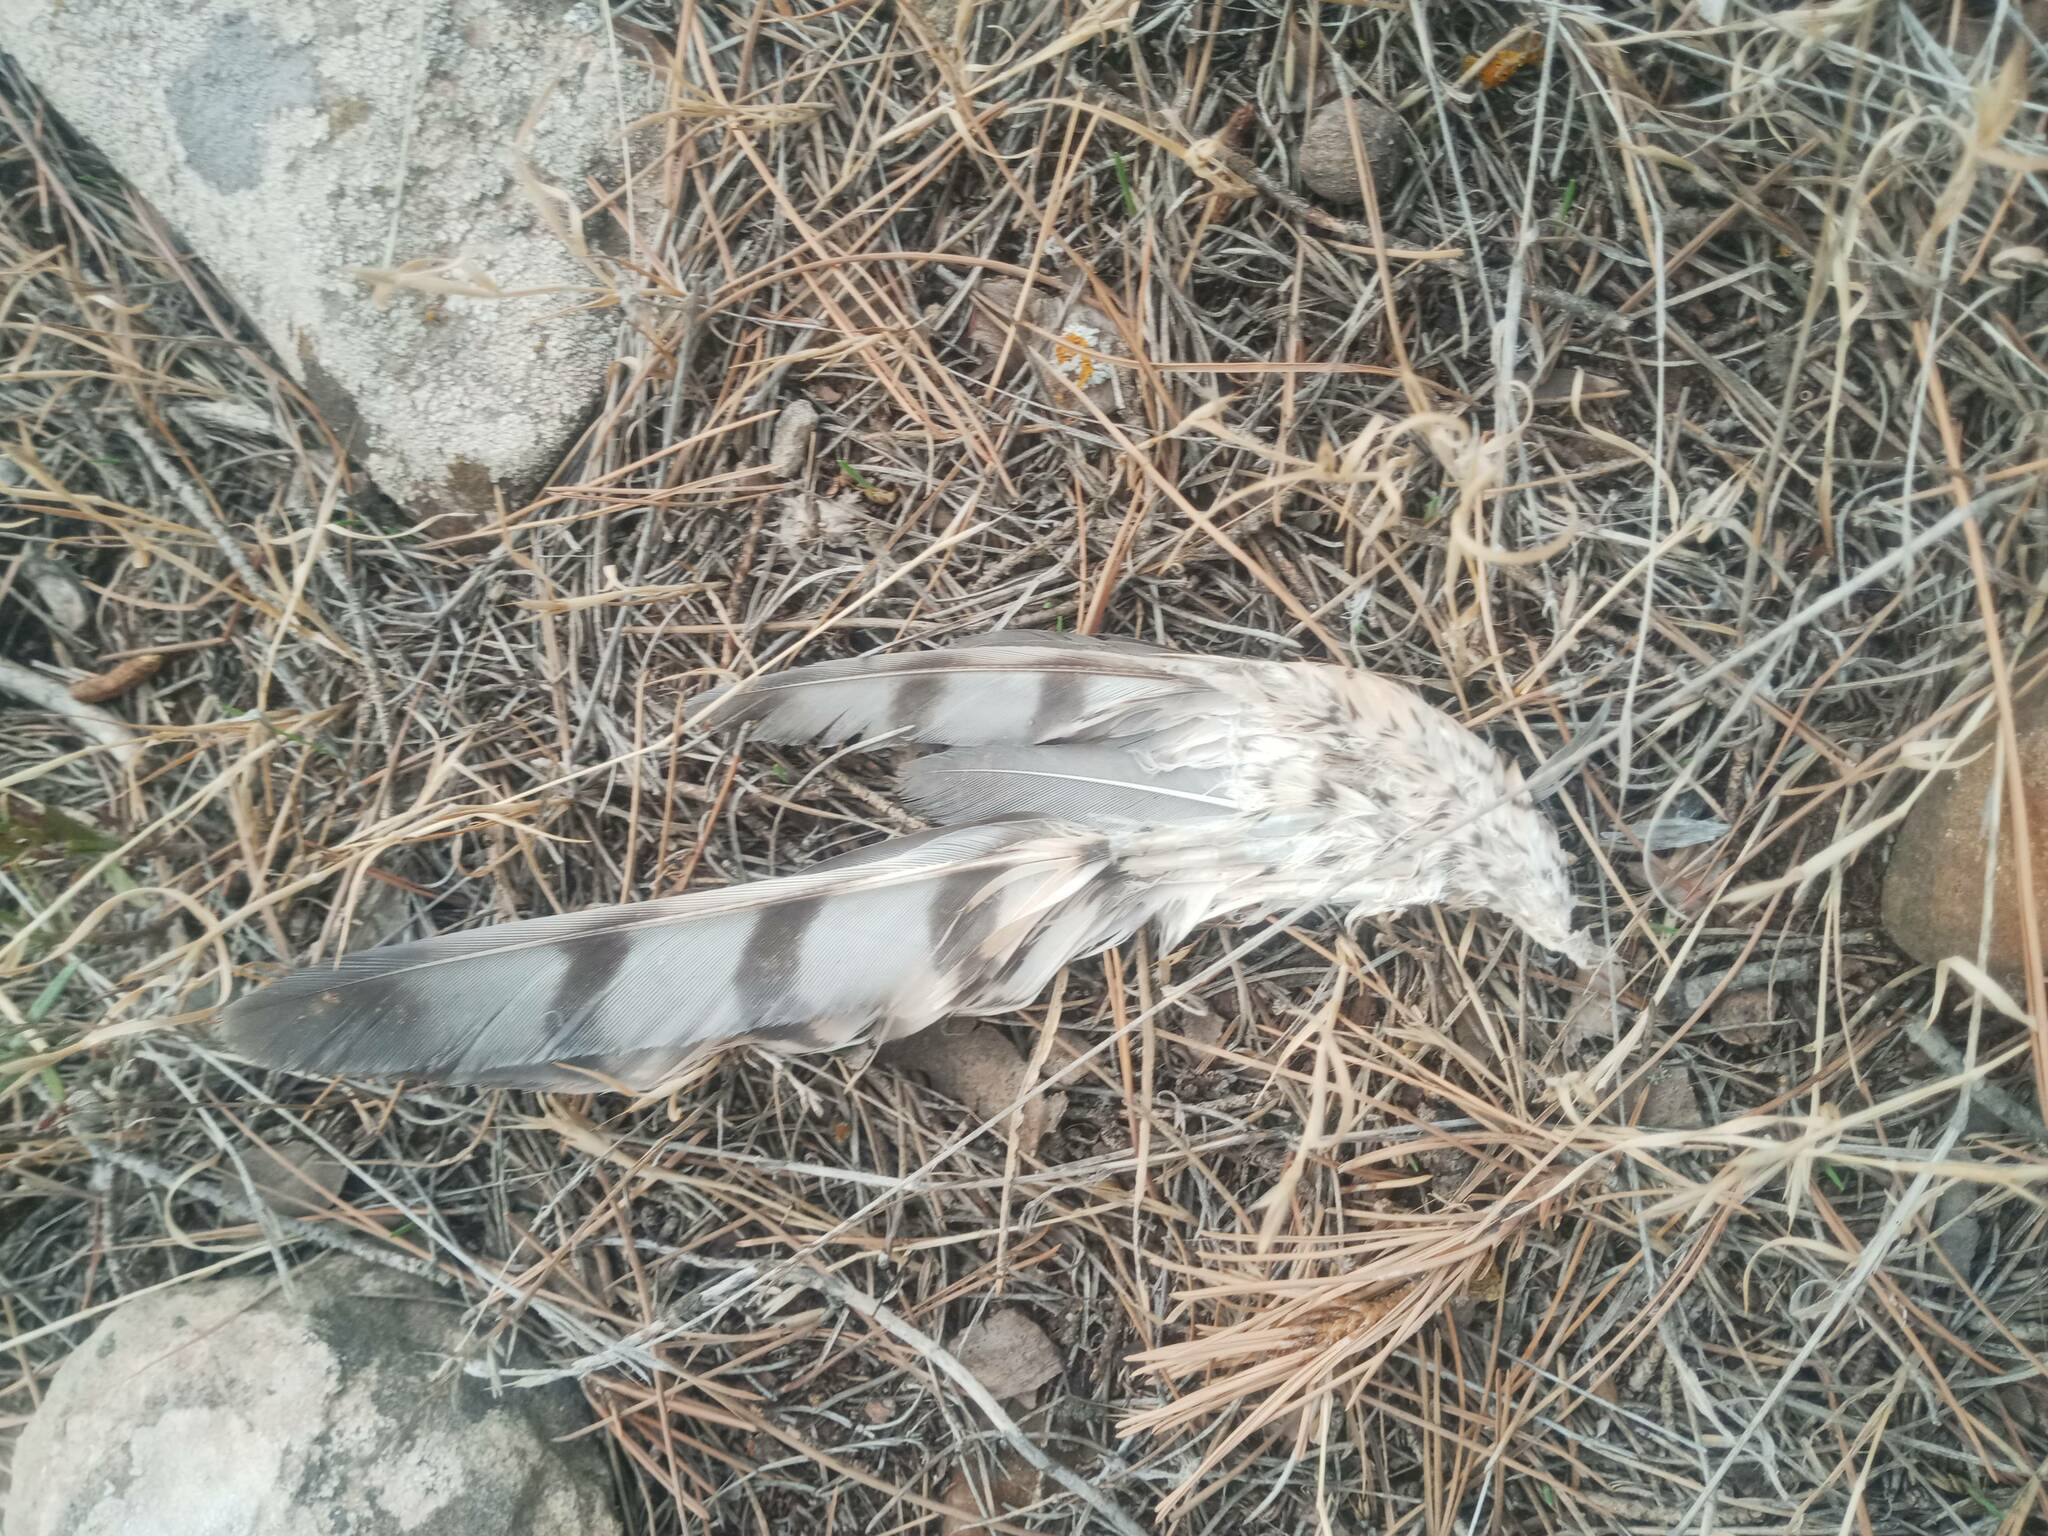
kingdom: Animalia
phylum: Chordata
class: Aves
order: Accipitriformes
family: Accipitridae
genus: Accipiter
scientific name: Accipiter nisus
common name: Eurasian sparrowhawk
